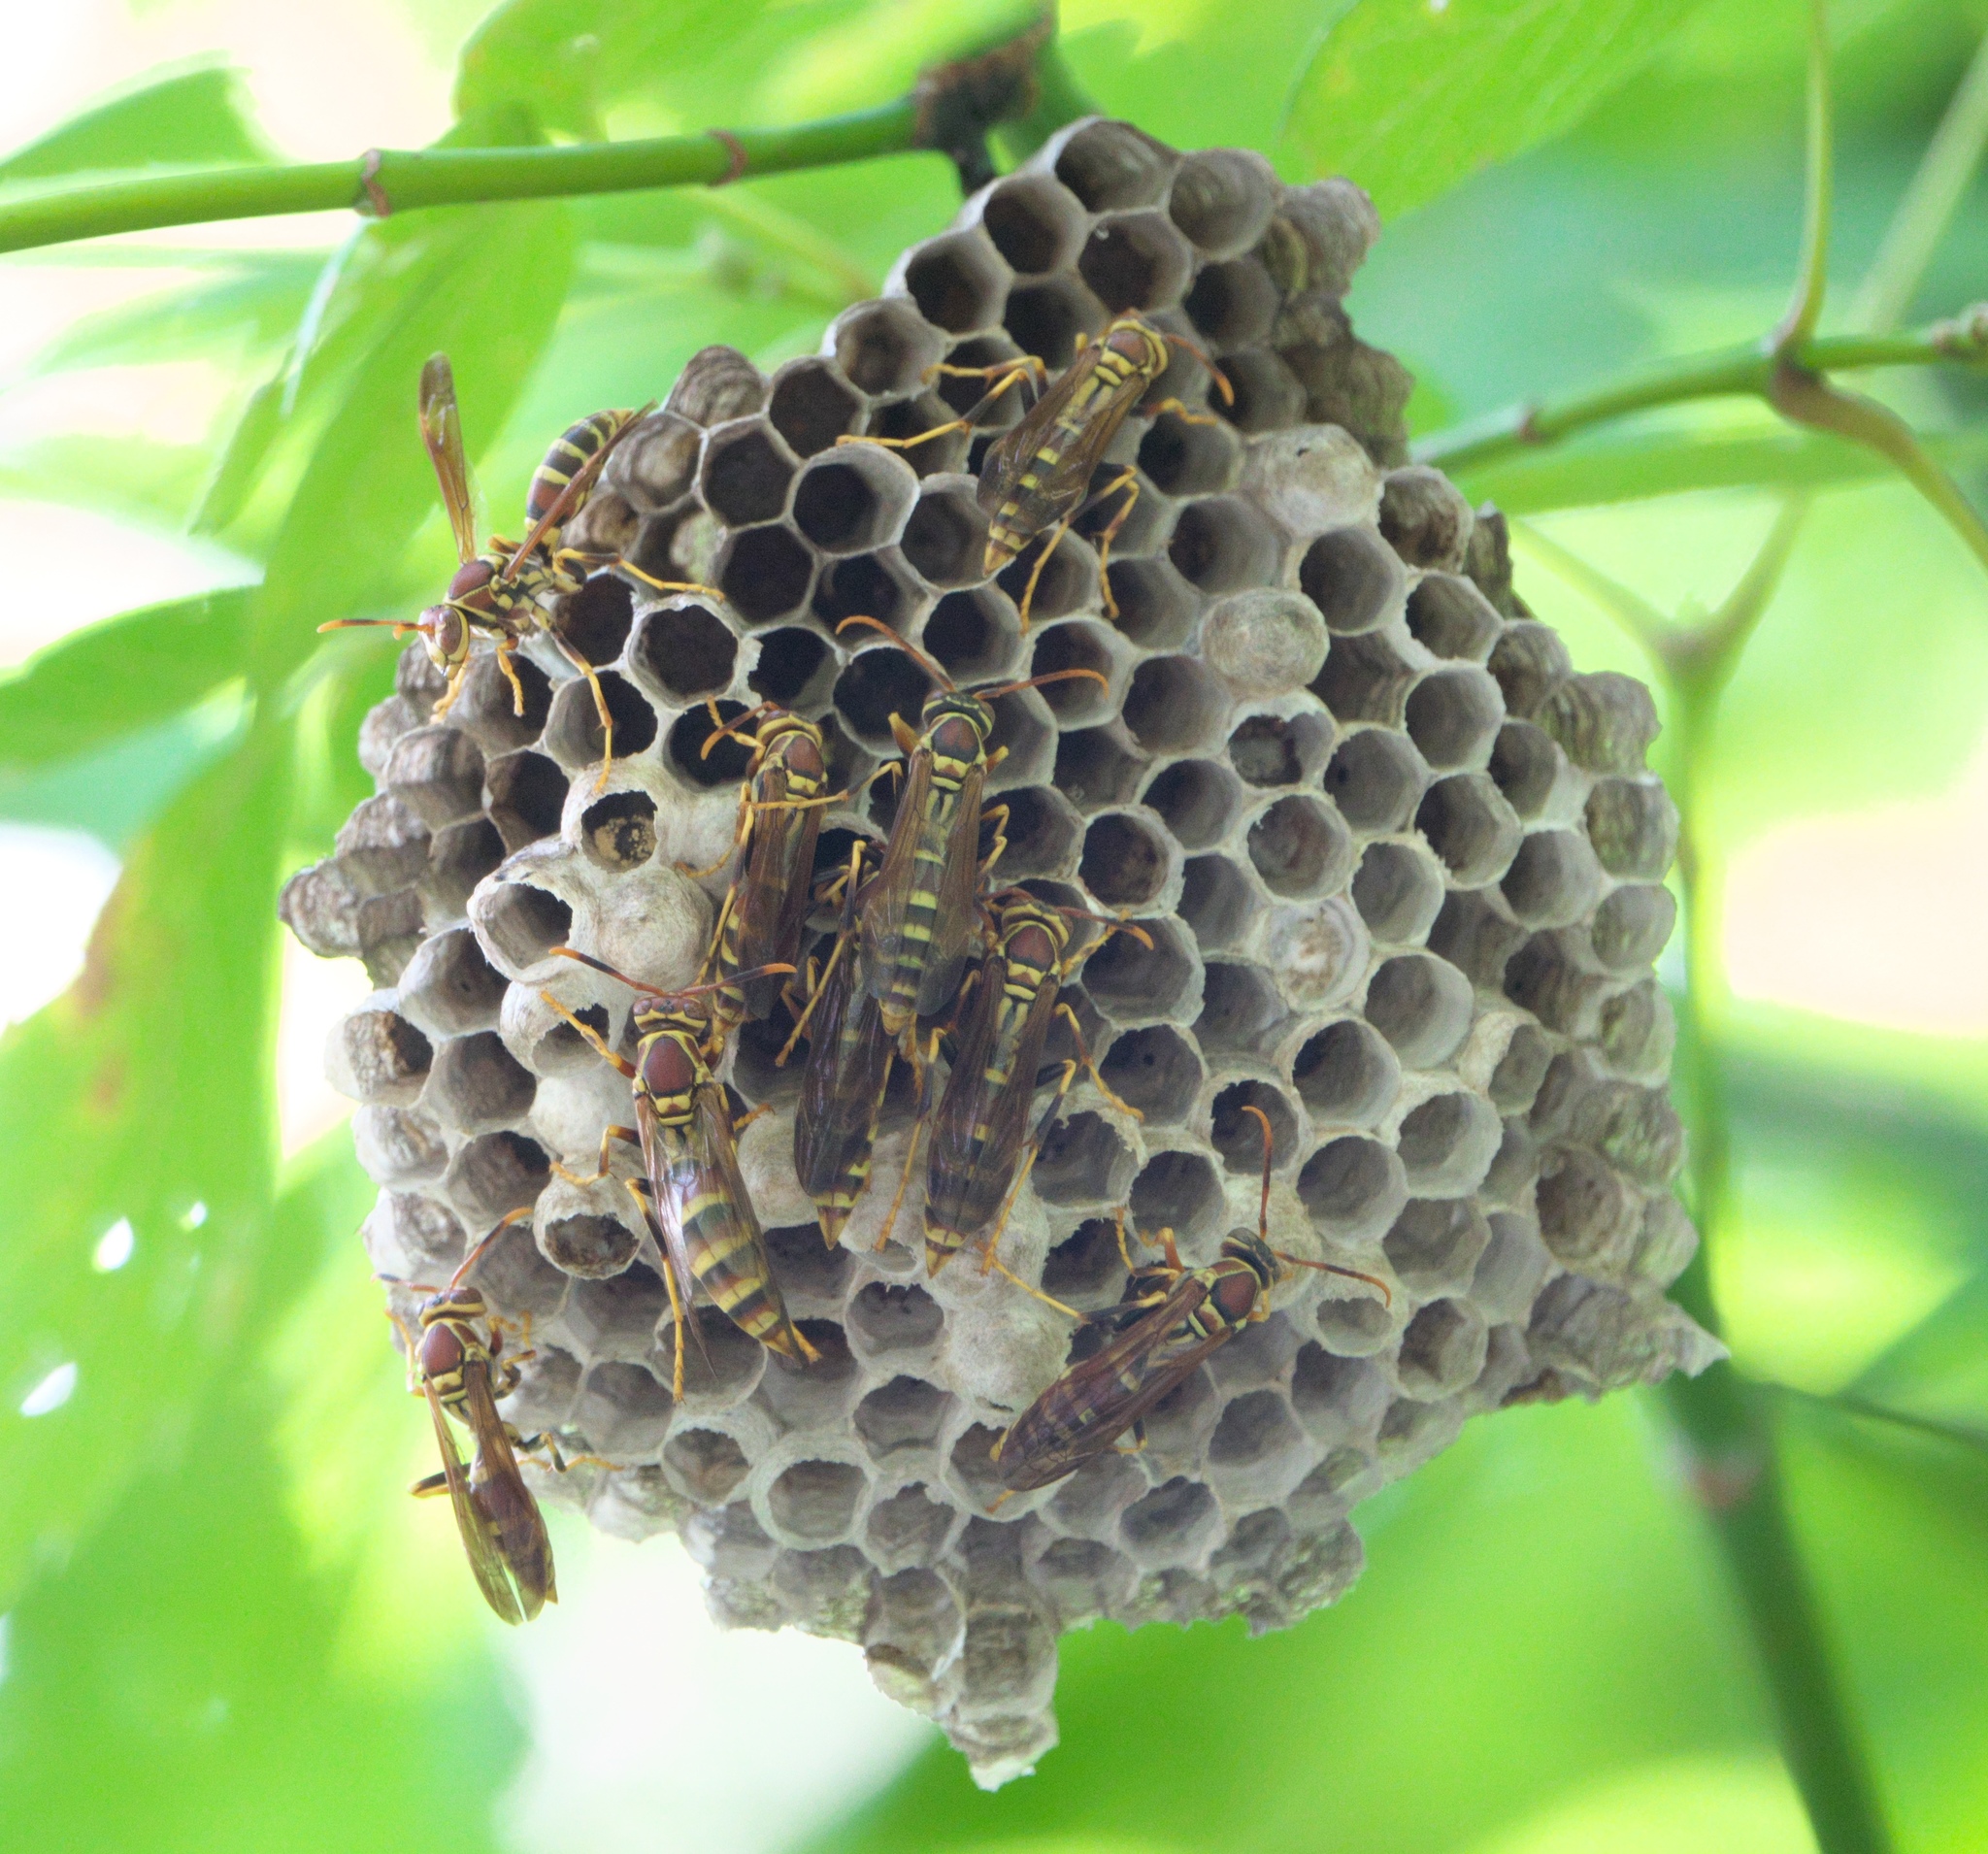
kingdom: Animalia
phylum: Arthropoda
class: Insecta
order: Hymenoptera
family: Eumenidae
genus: Polistes
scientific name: Polistes exclamans
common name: Paper wasp
